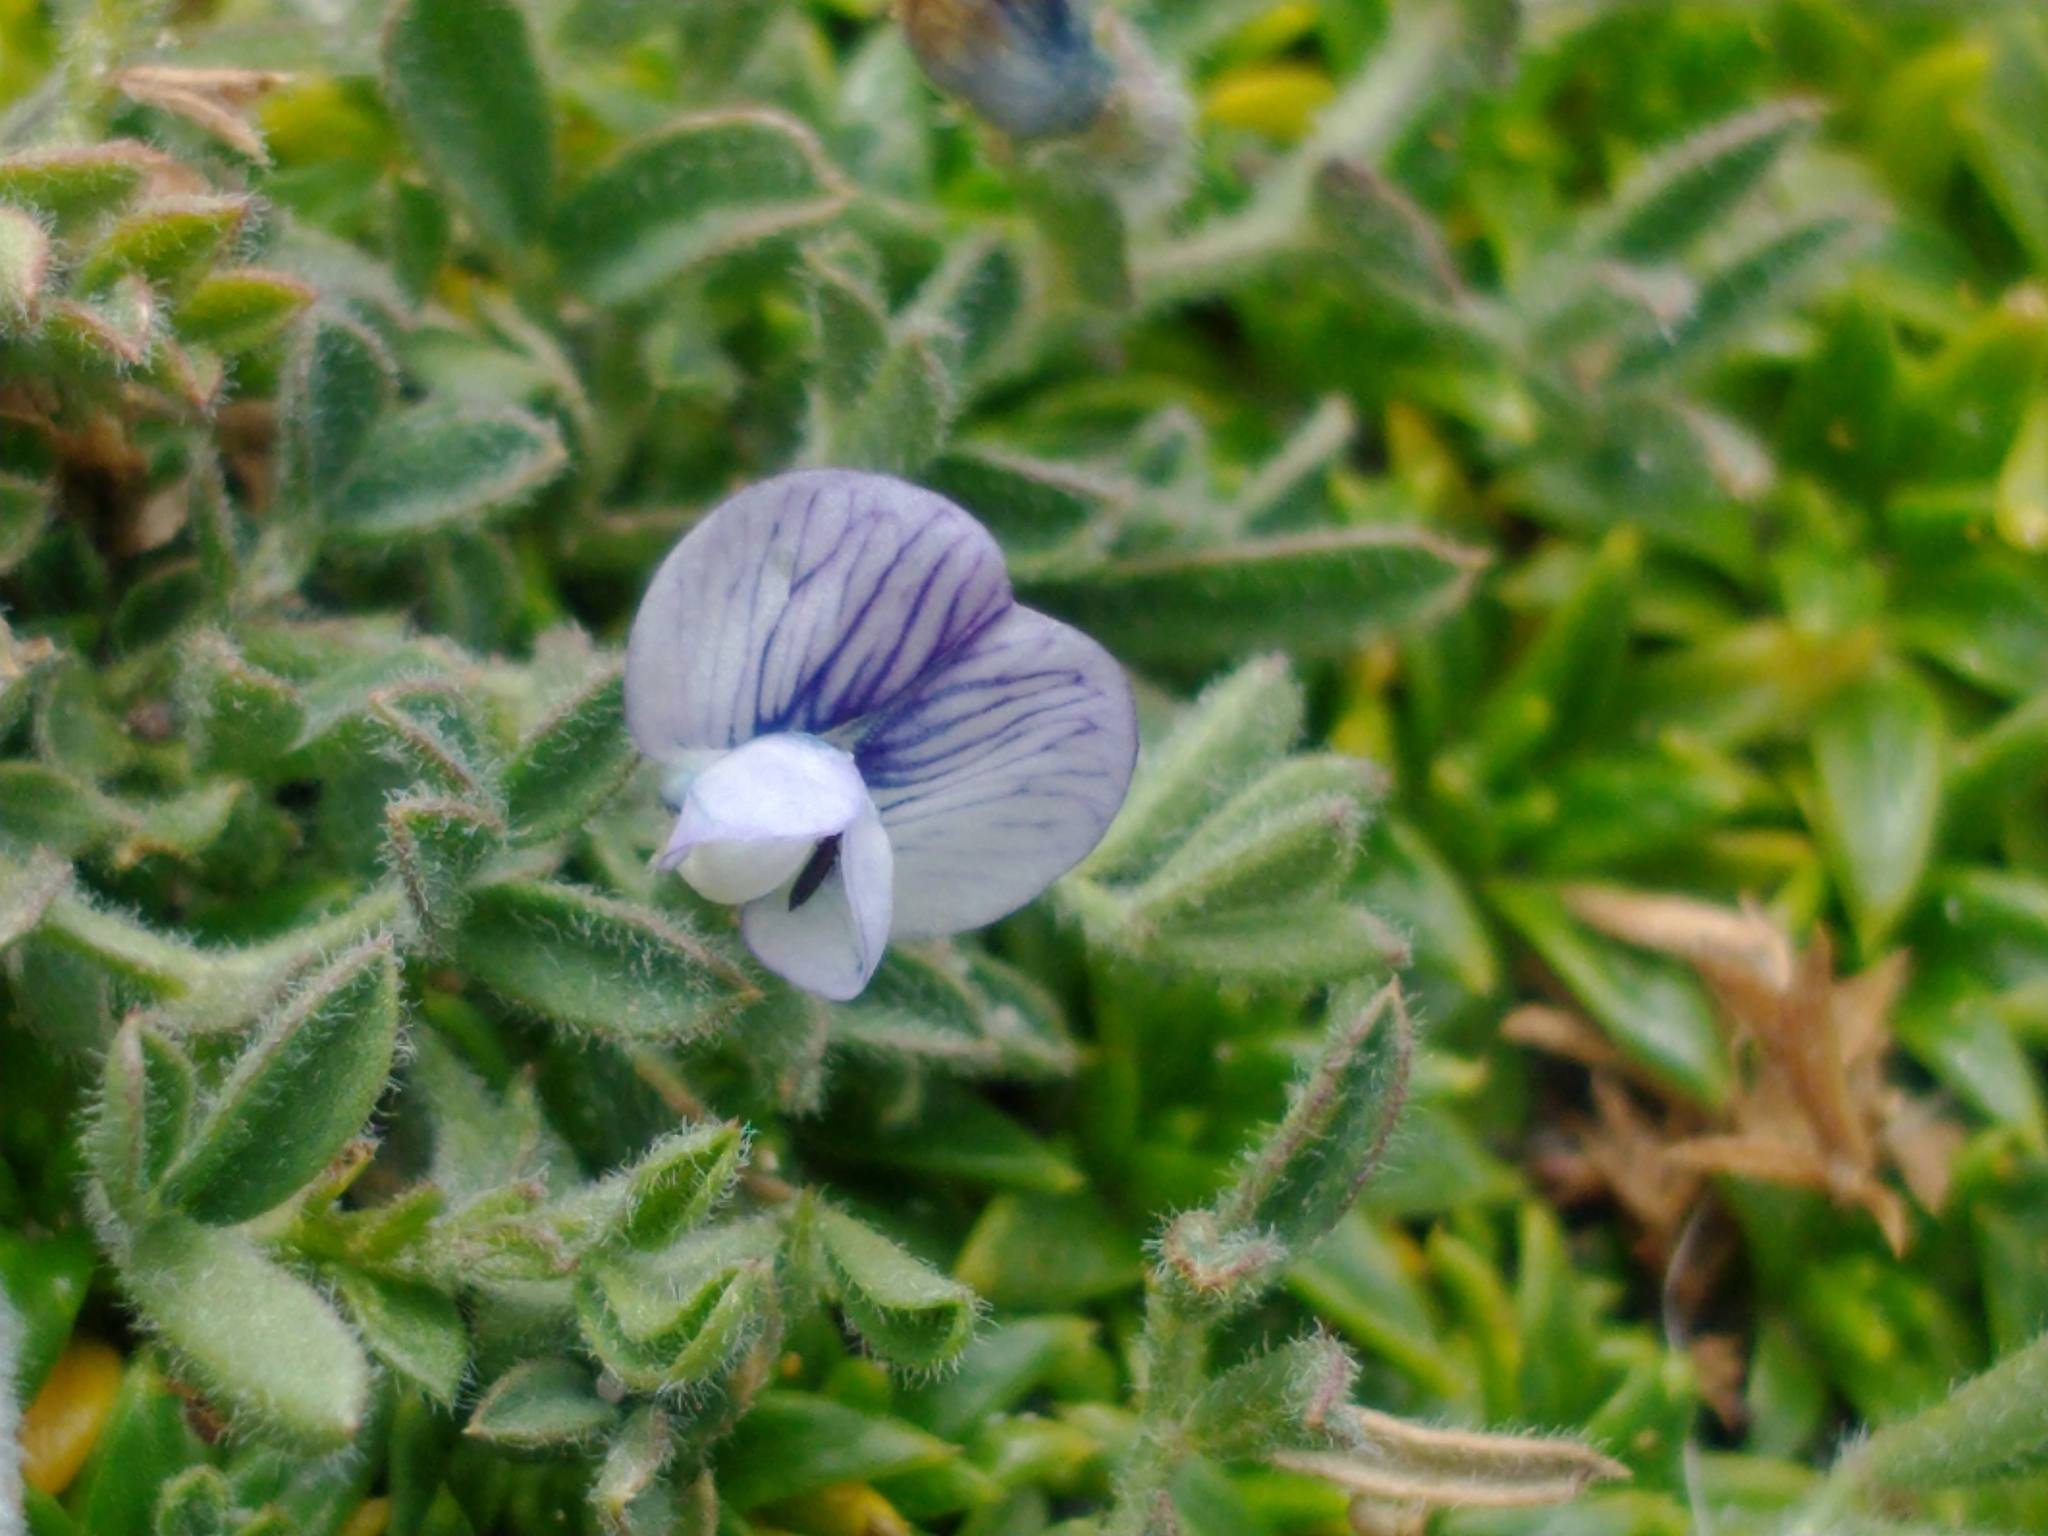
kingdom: Plantae
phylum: Tracheophyta
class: Magnoliopsida
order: Fabales
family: Fabaceae
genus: Vicia
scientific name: Vicia magellanica
